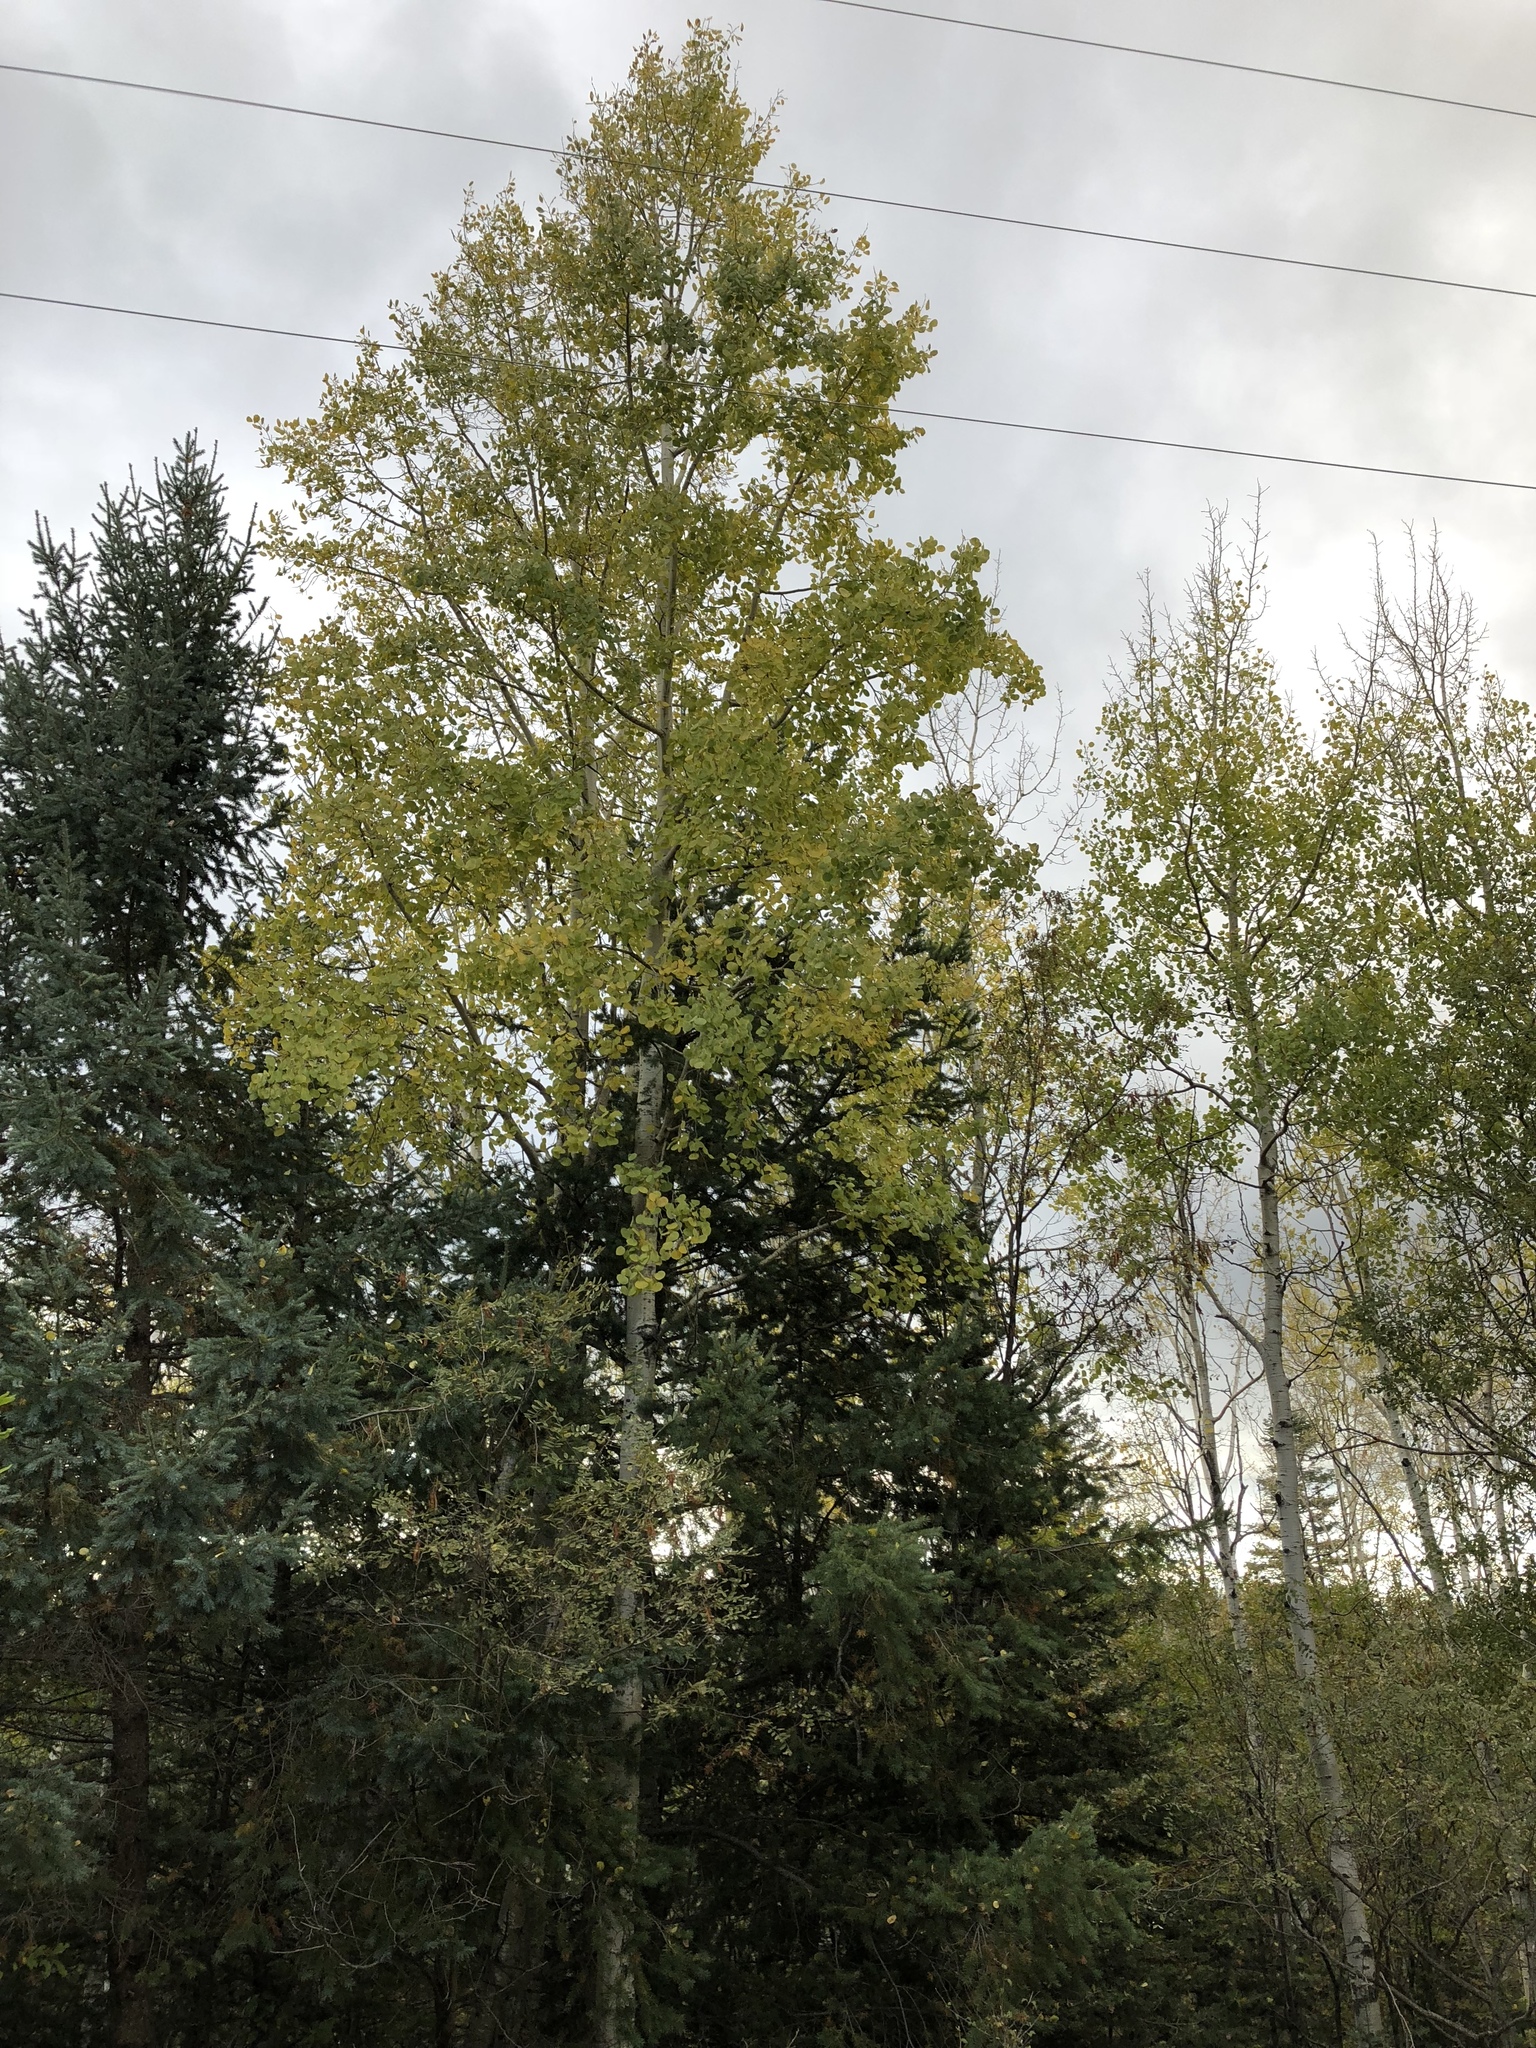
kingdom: Plantae
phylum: Tracheophyta
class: Magnoliopsida
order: Malpighiales
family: Salicaceae
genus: Populus
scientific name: Populus tremuloides
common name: Quaking aspen
